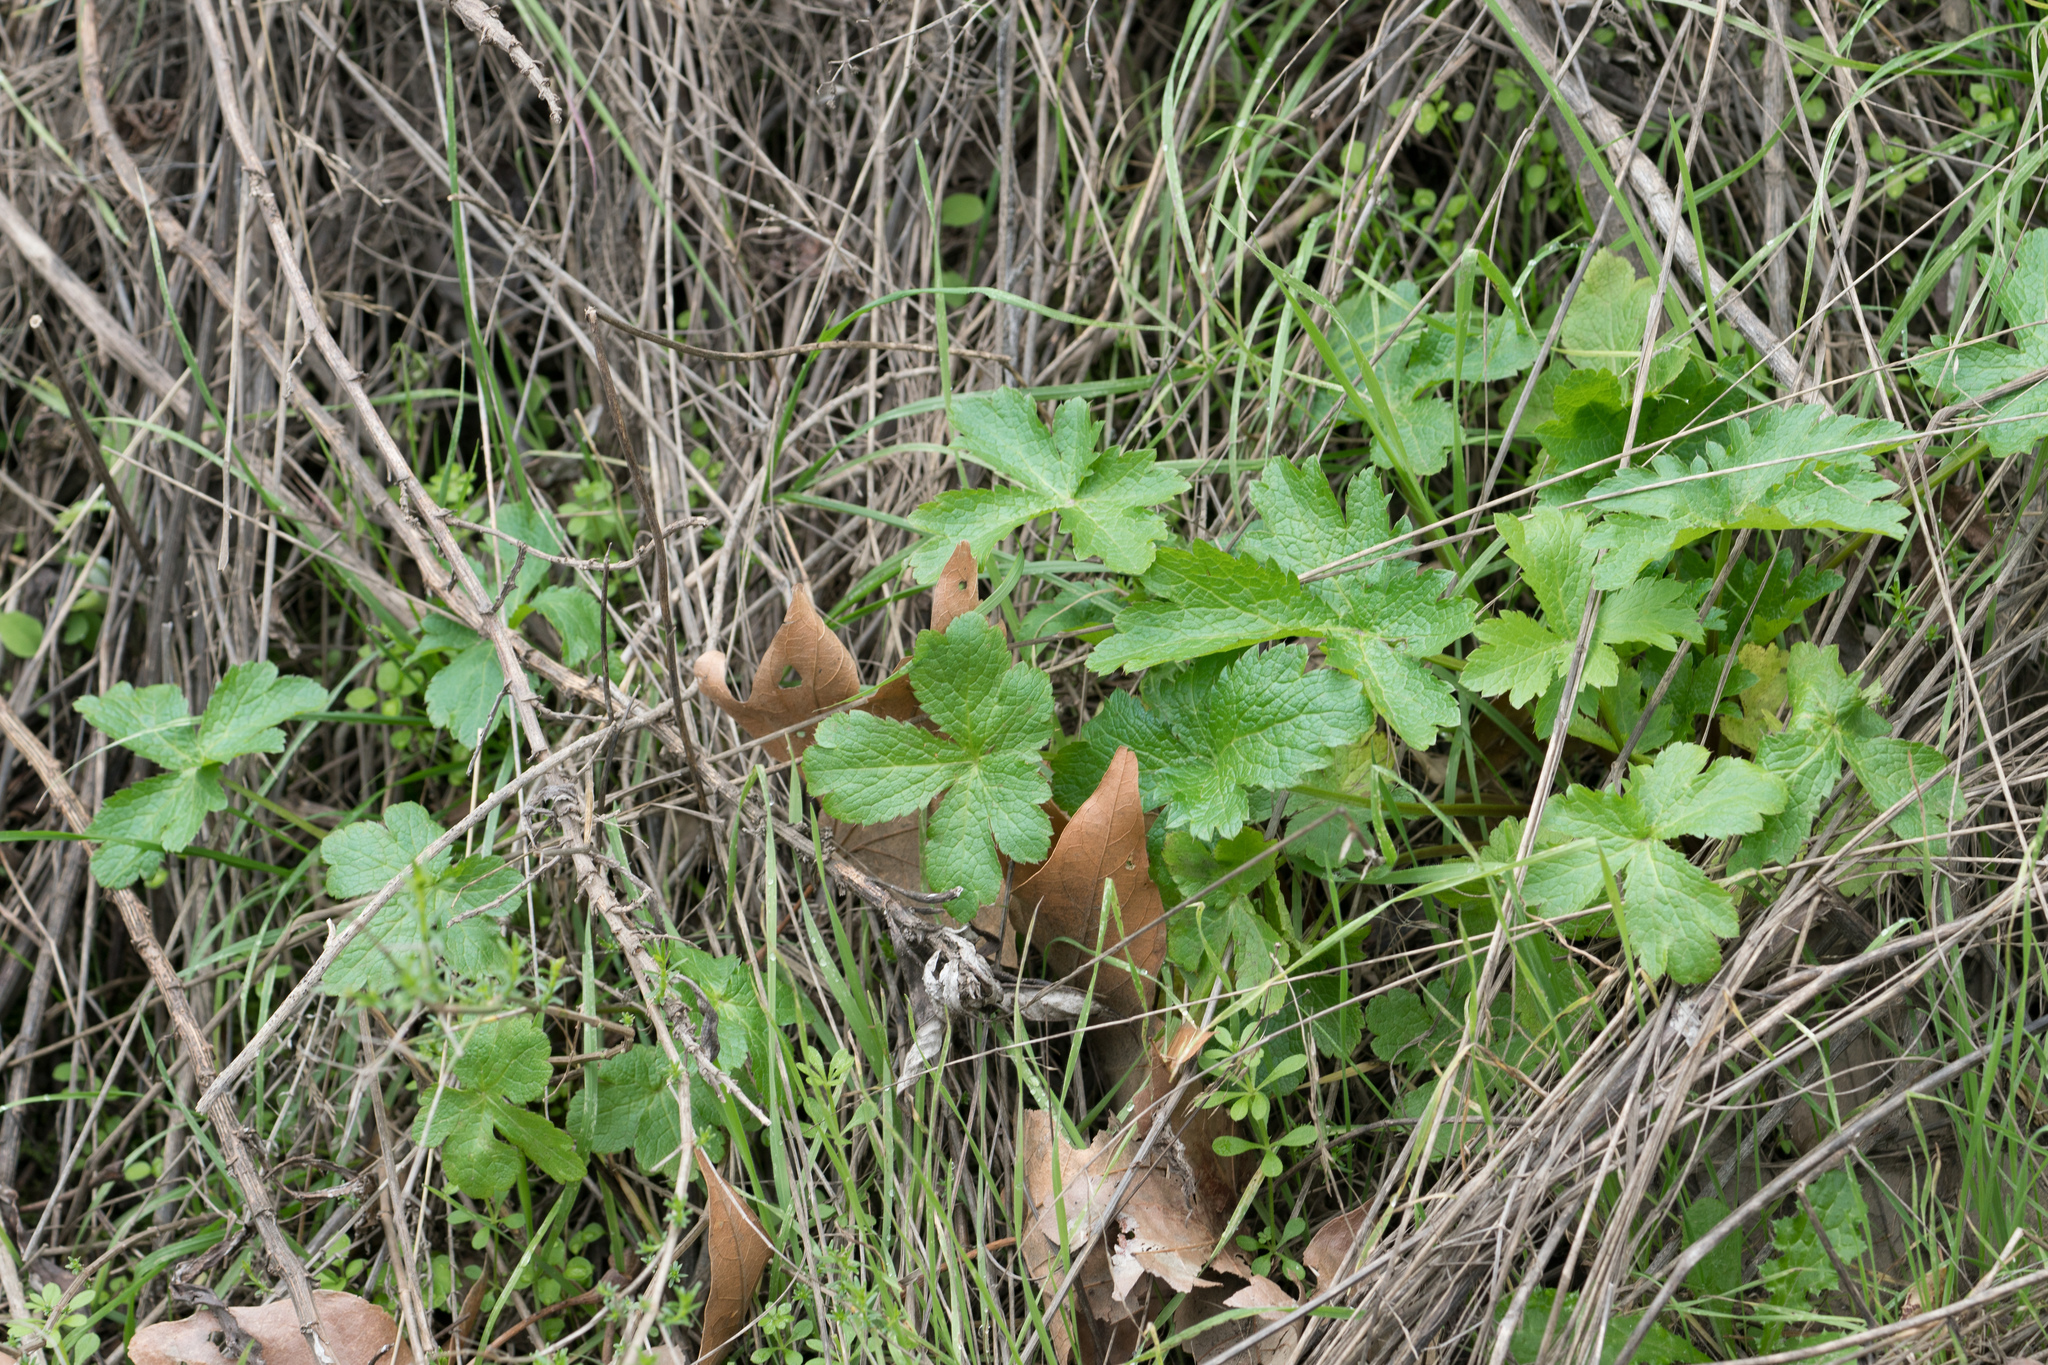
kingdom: Plantae
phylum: Tracheophyta
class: Magnoliopsida
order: Apiales
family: Apiaceae
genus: Sanicula
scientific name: Sanicula crassicaulis
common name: Western snakeroot
